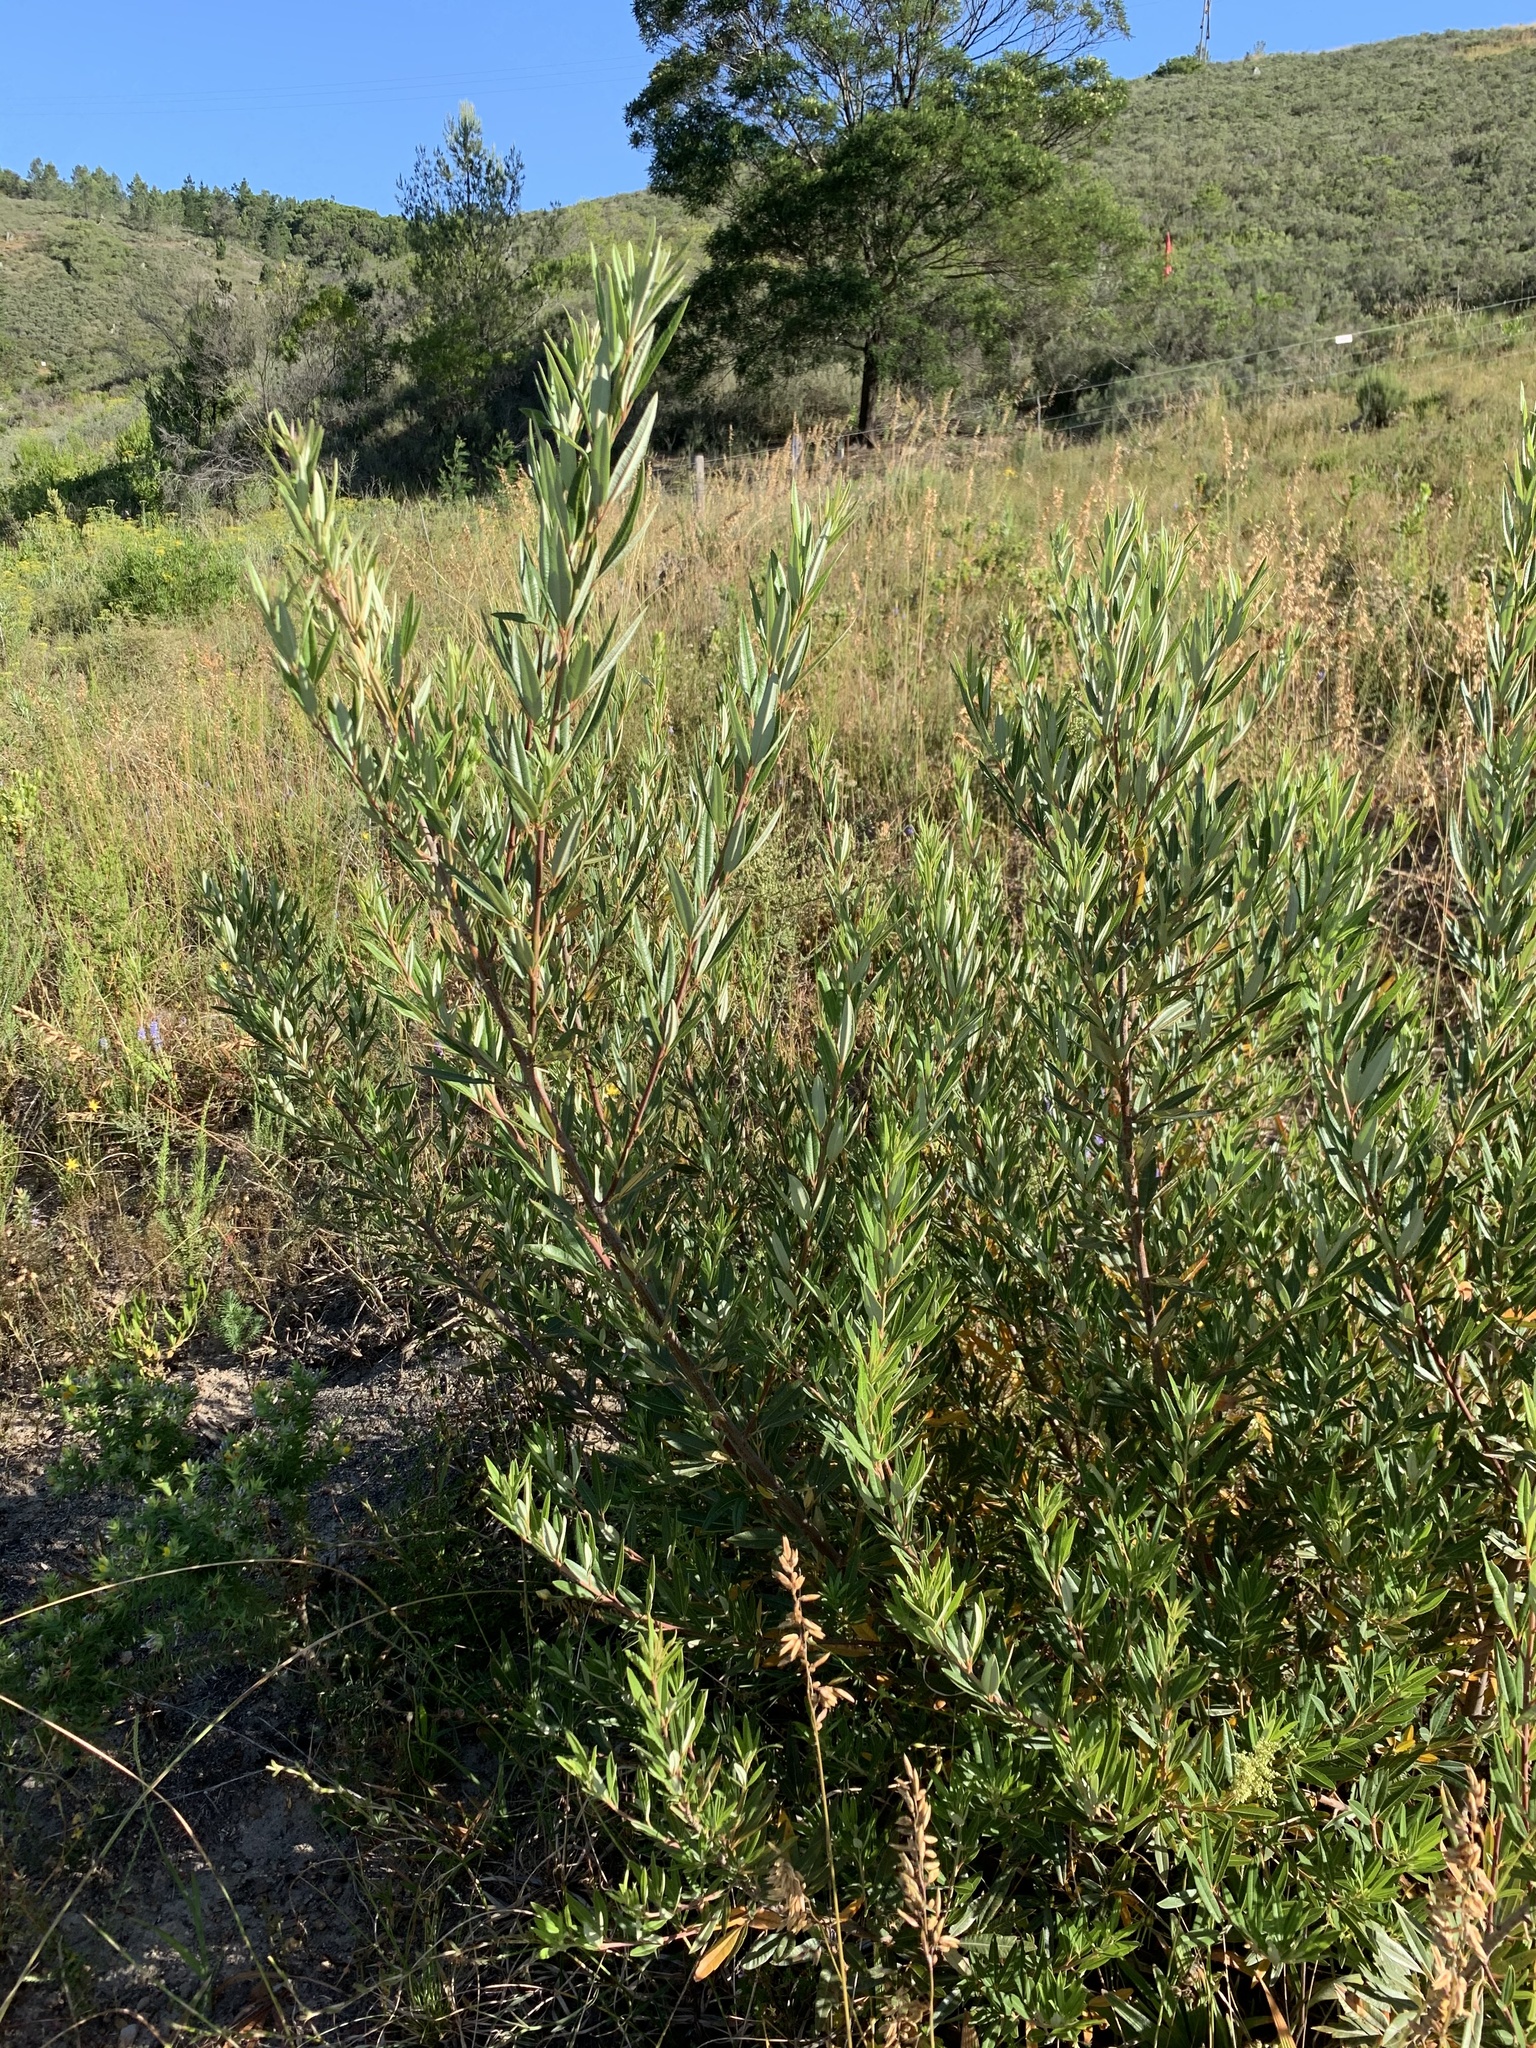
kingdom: Plantae
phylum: Tracheophyta
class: Magnoliopsida
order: Sapindales
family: Anacardiaceae
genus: Searsia
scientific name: Searsia angustifolia
